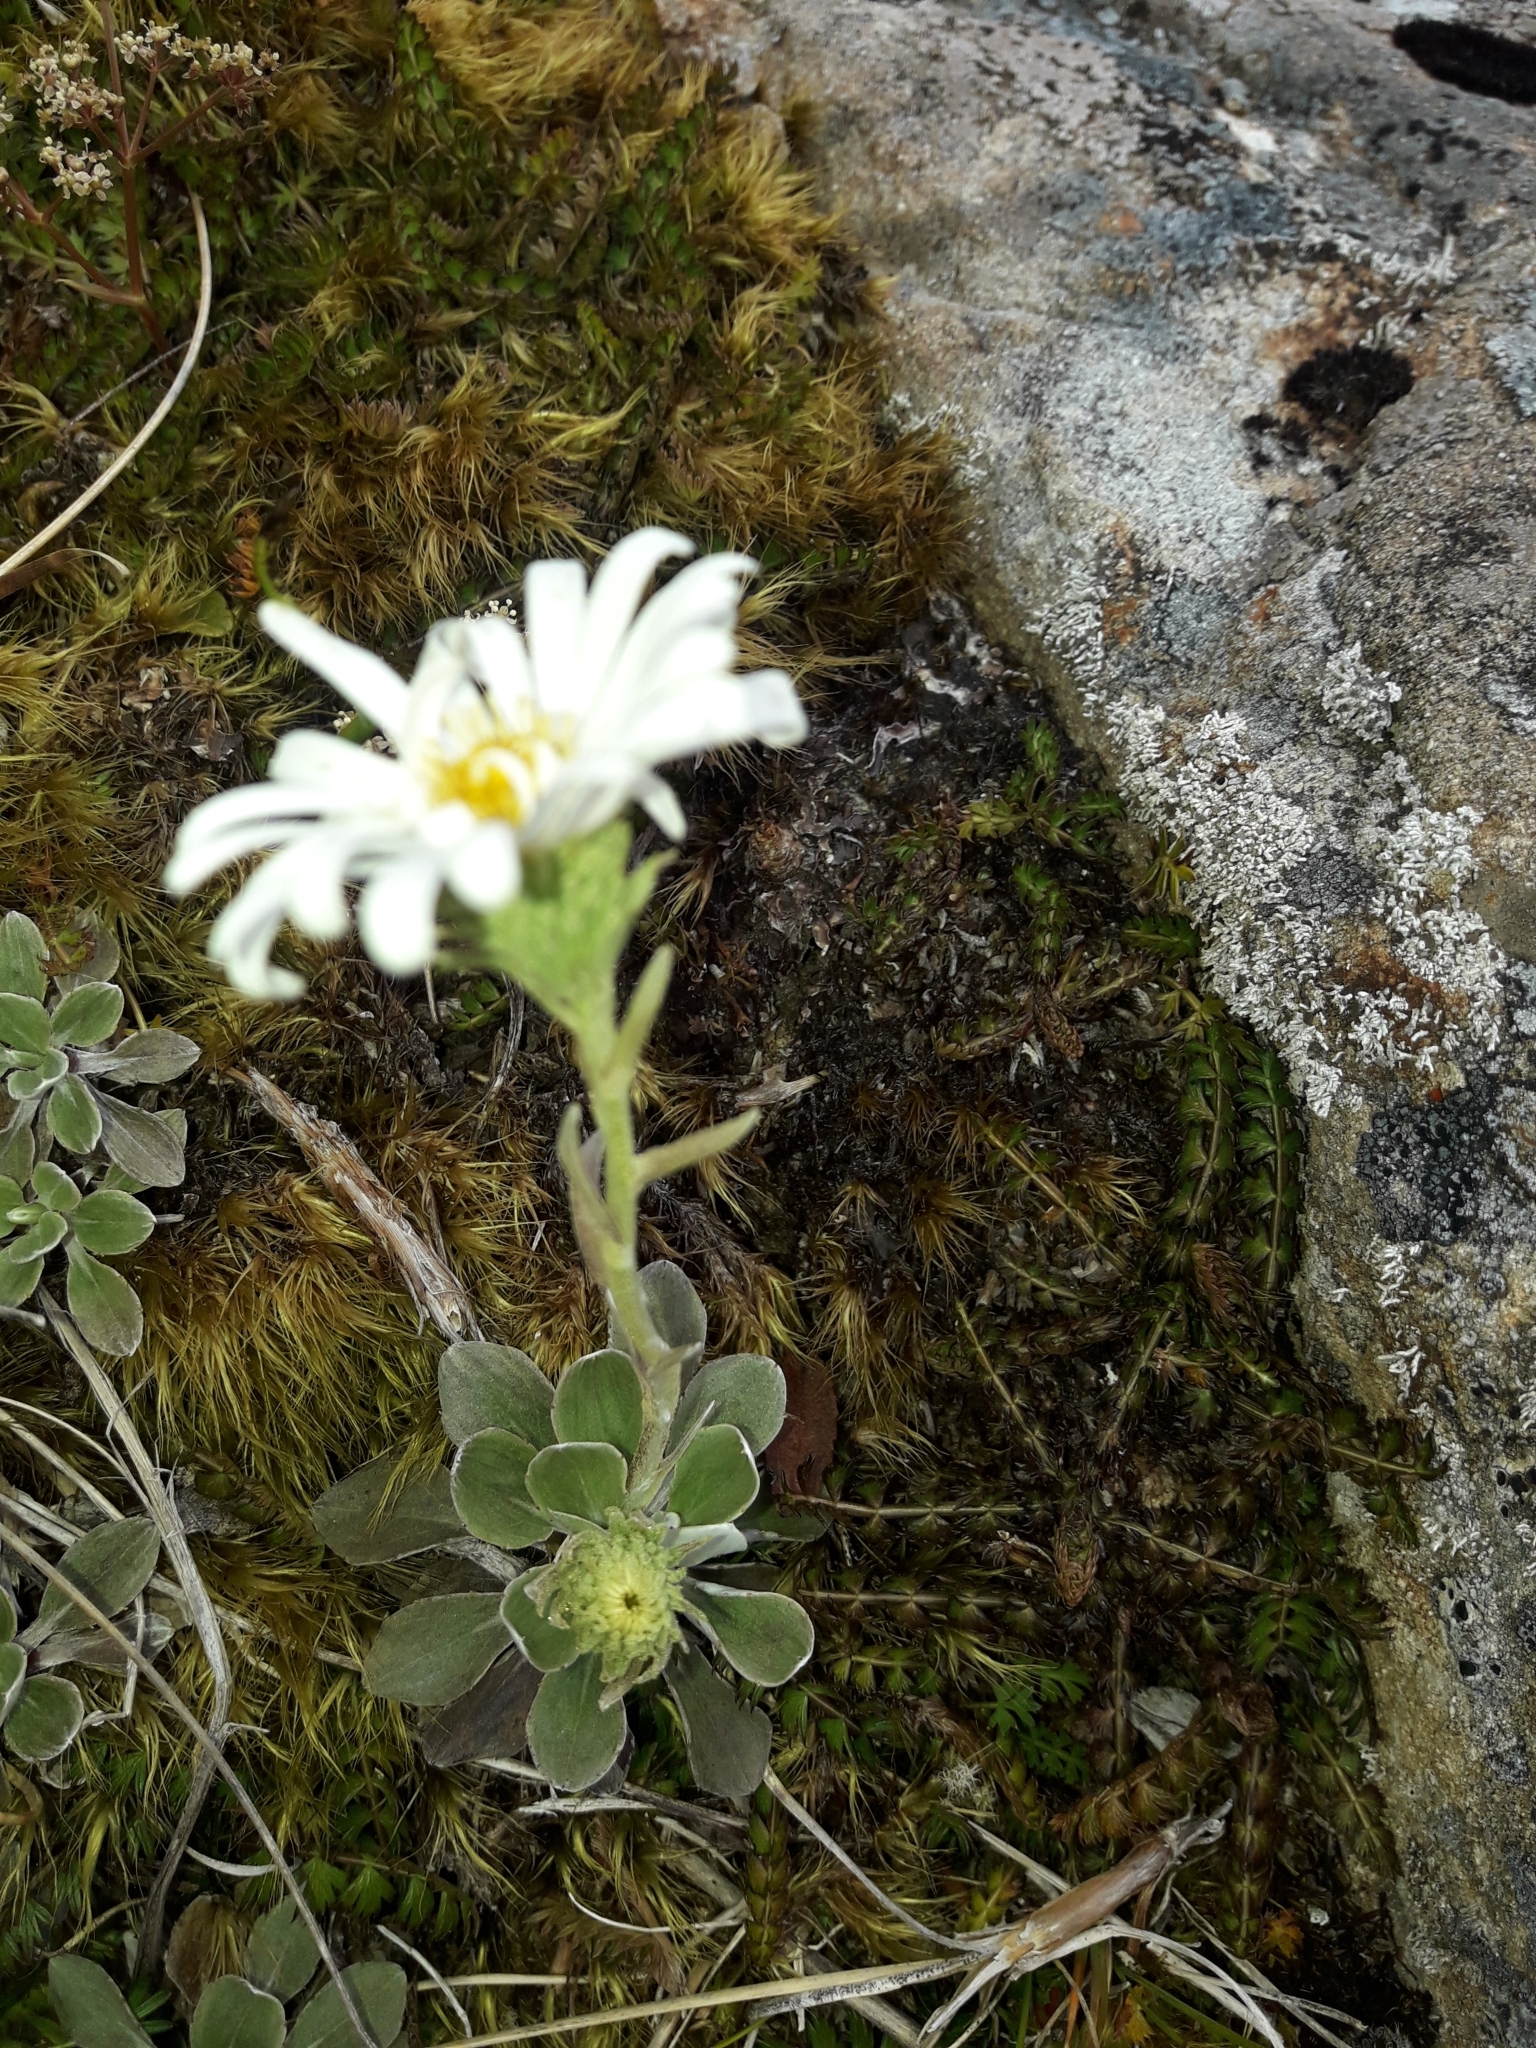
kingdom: Plantae
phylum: Tracheophyta
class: Magnoliopsida
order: Asterales
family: Asteraceae
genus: Celmisia
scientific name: Celmisia discolor
